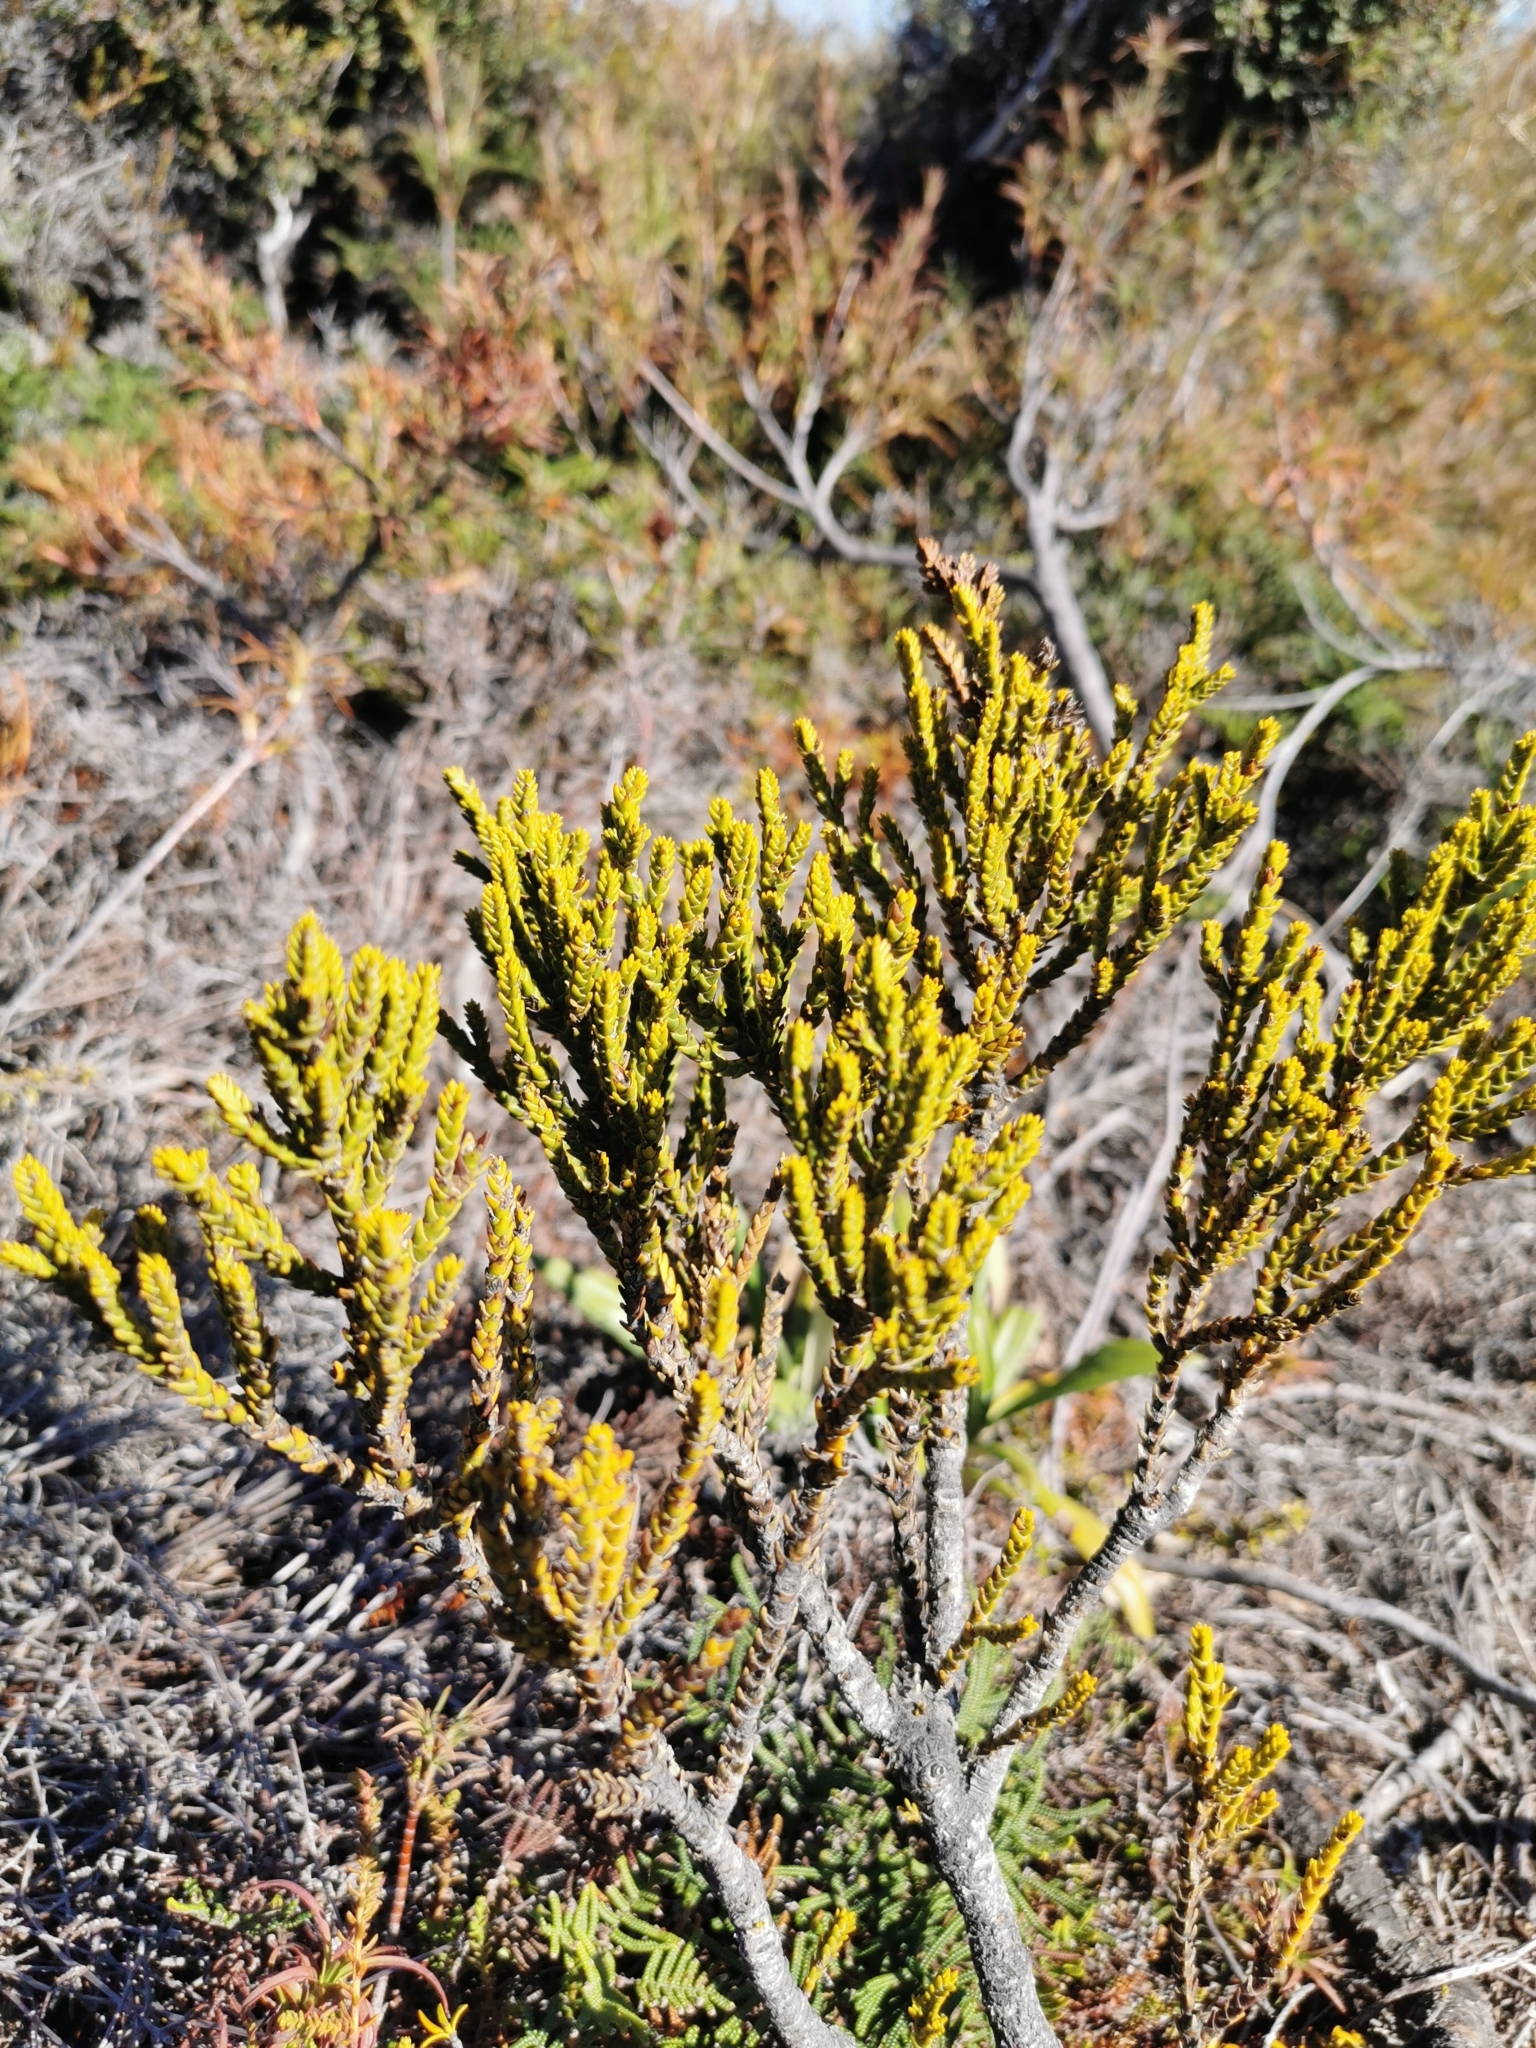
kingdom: Plantae
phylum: Tracheophyta
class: Magnoliopsida
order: Lamiales
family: Plantaginaceae
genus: Veronica
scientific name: Veronica tetragona
